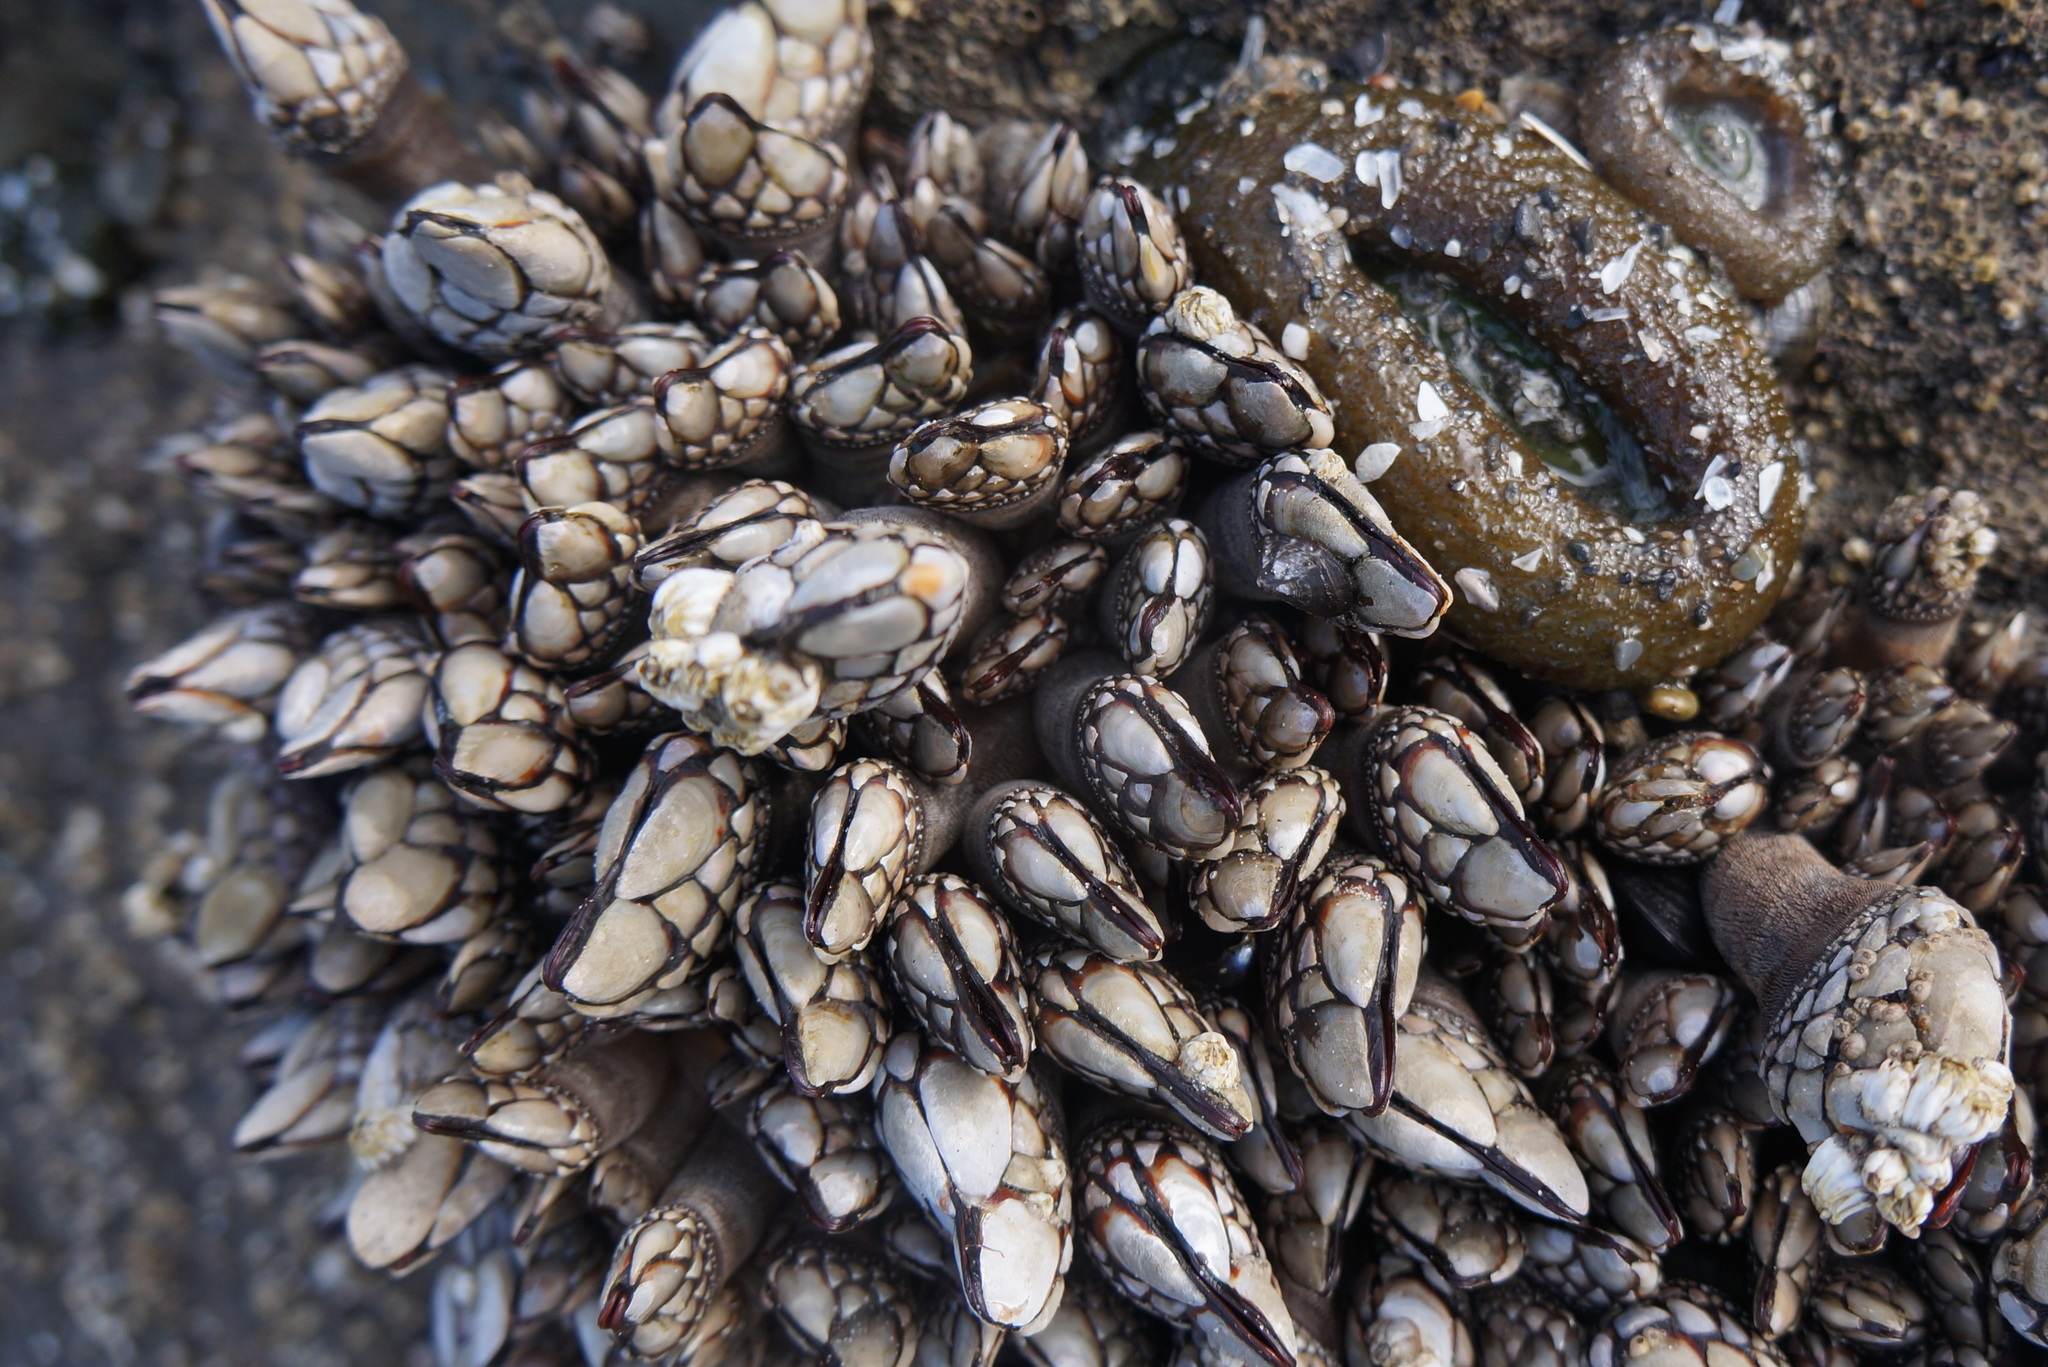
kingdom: Animalia
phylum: Arthropoda
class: Maxillopoda
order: Pedunculata
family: Pollicipedidae
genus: Pollicipes
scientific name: Pollicipes polymerus
